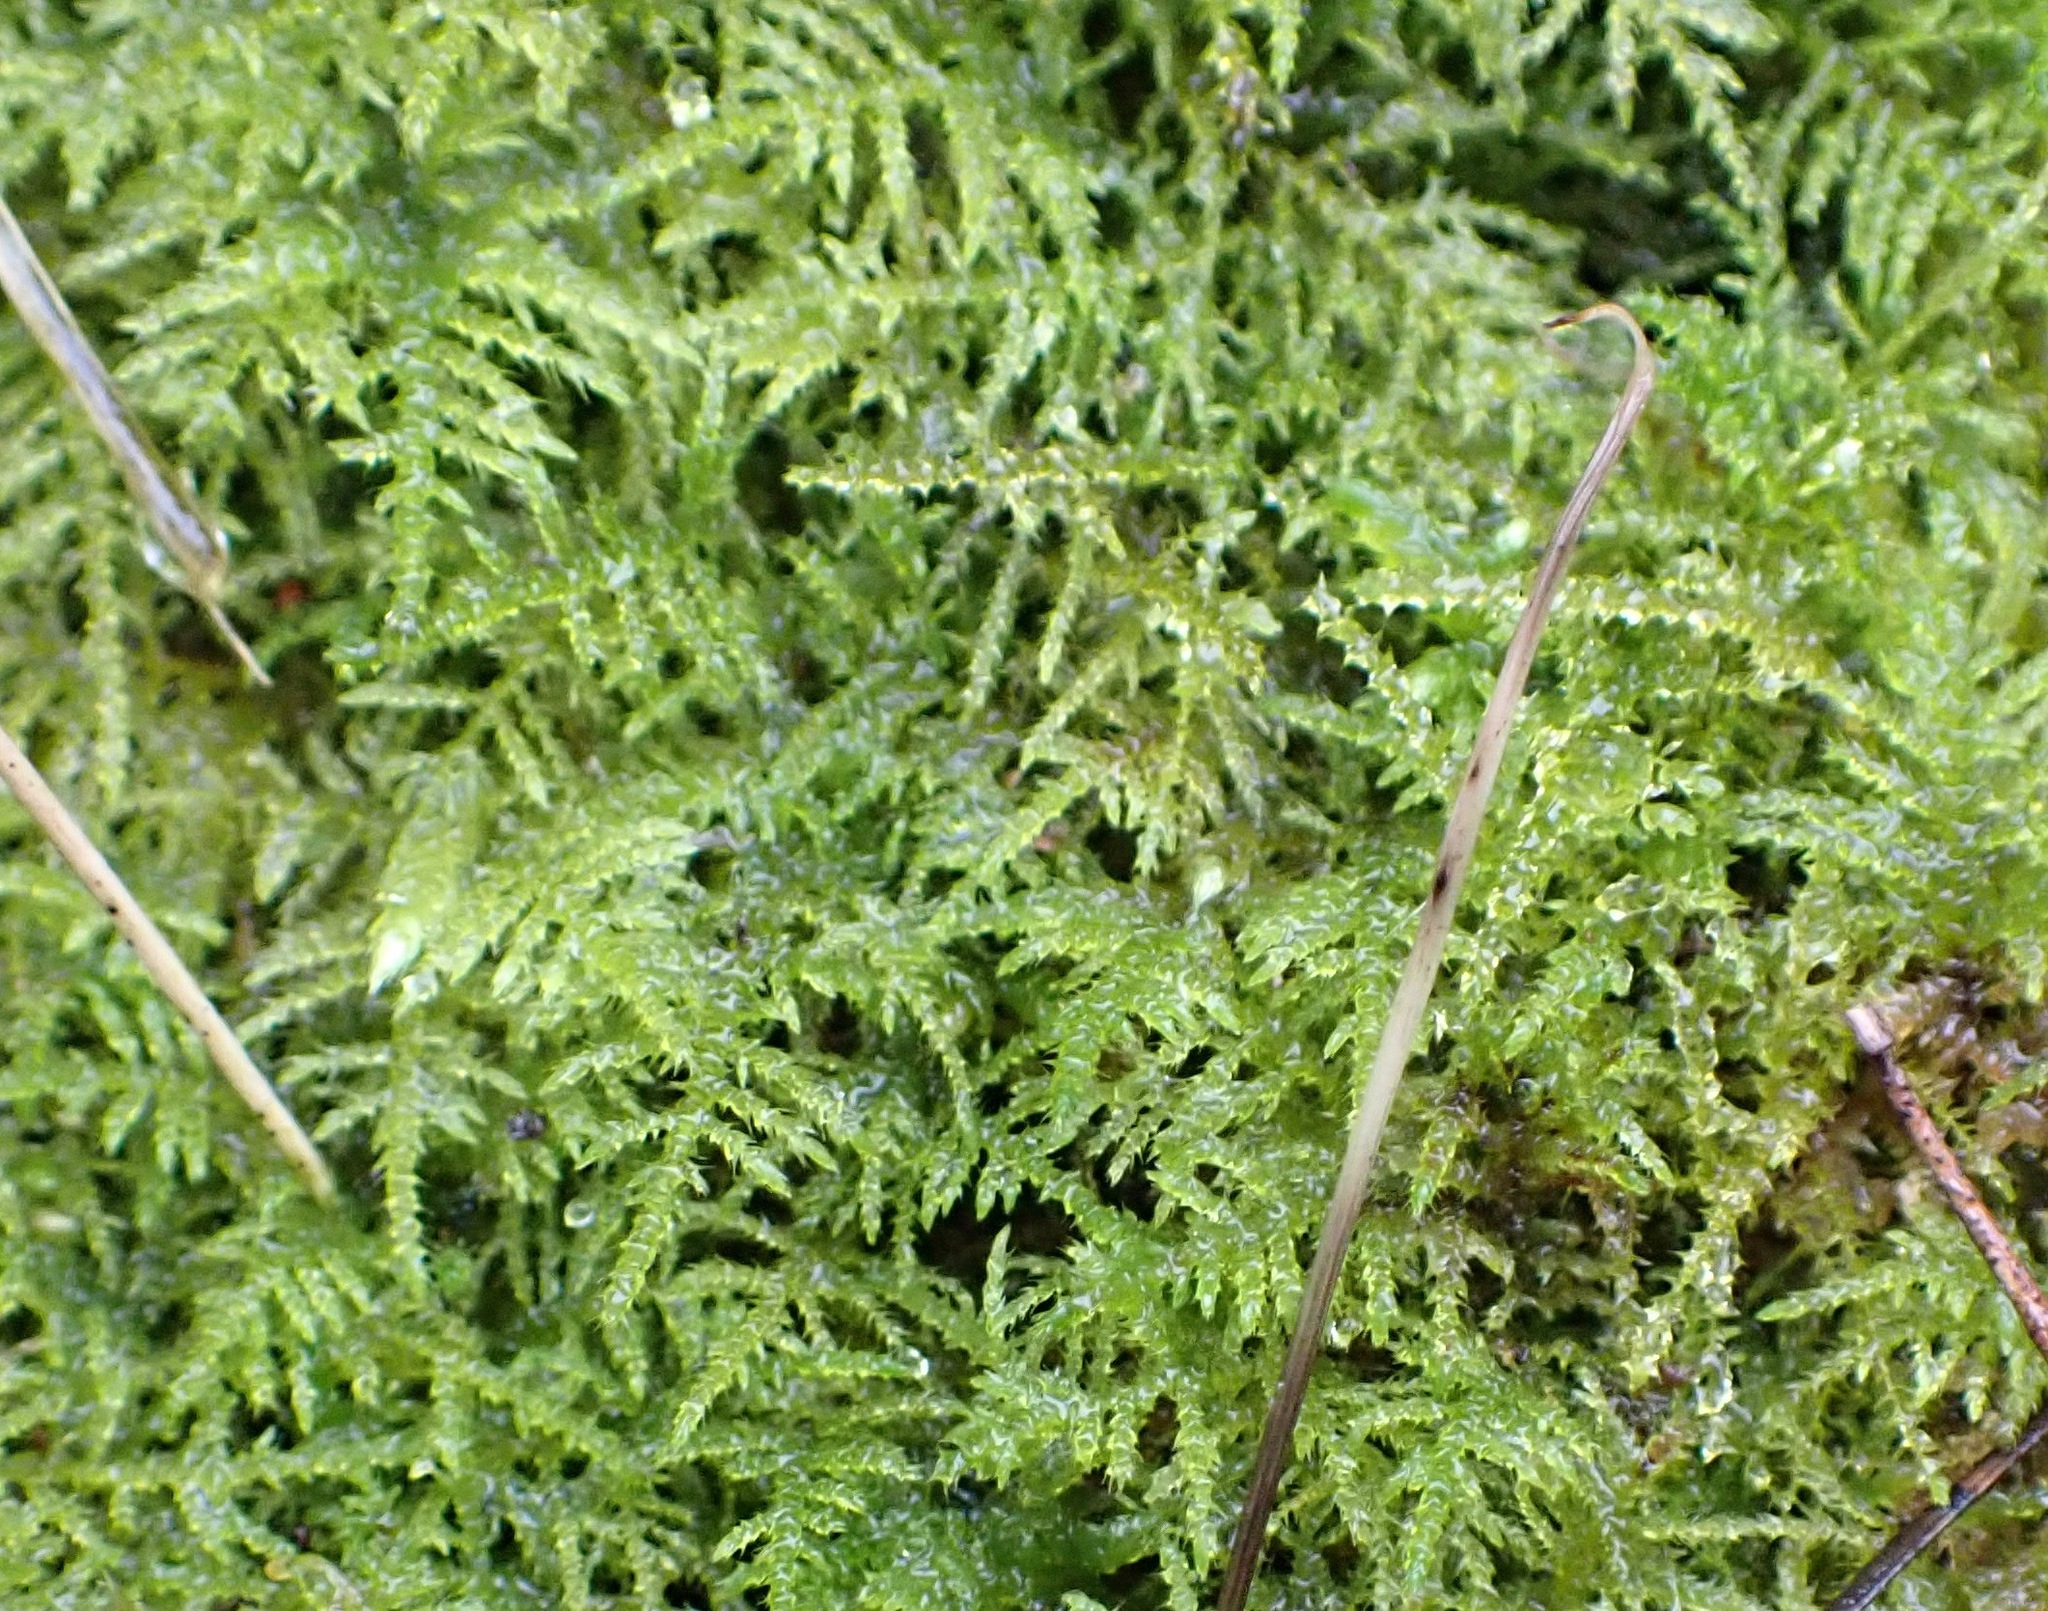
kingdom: Plantae
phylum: Bryophyta
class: Bryopsida
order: Hypnales
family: Brachytheciaceae
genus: Kindbergia
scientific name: Kindbergia praelonga
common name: Slender beaked moss
